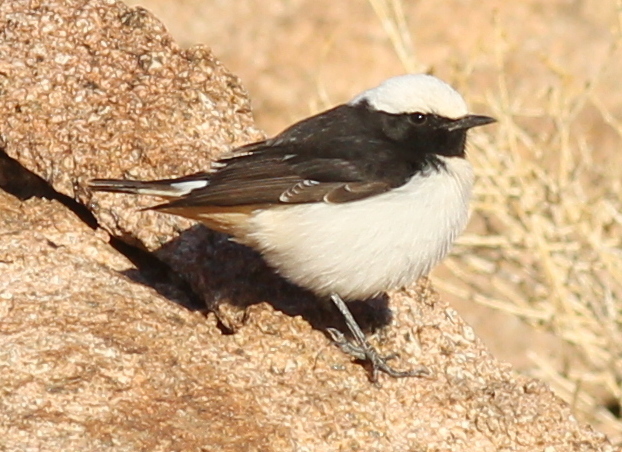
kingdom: Animalia
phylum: Chordata
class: Aves
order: Passeriformes
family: Muscicapidae
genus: Oenanthe
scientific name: Oenanthe lugens
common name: Mourning wheatear
